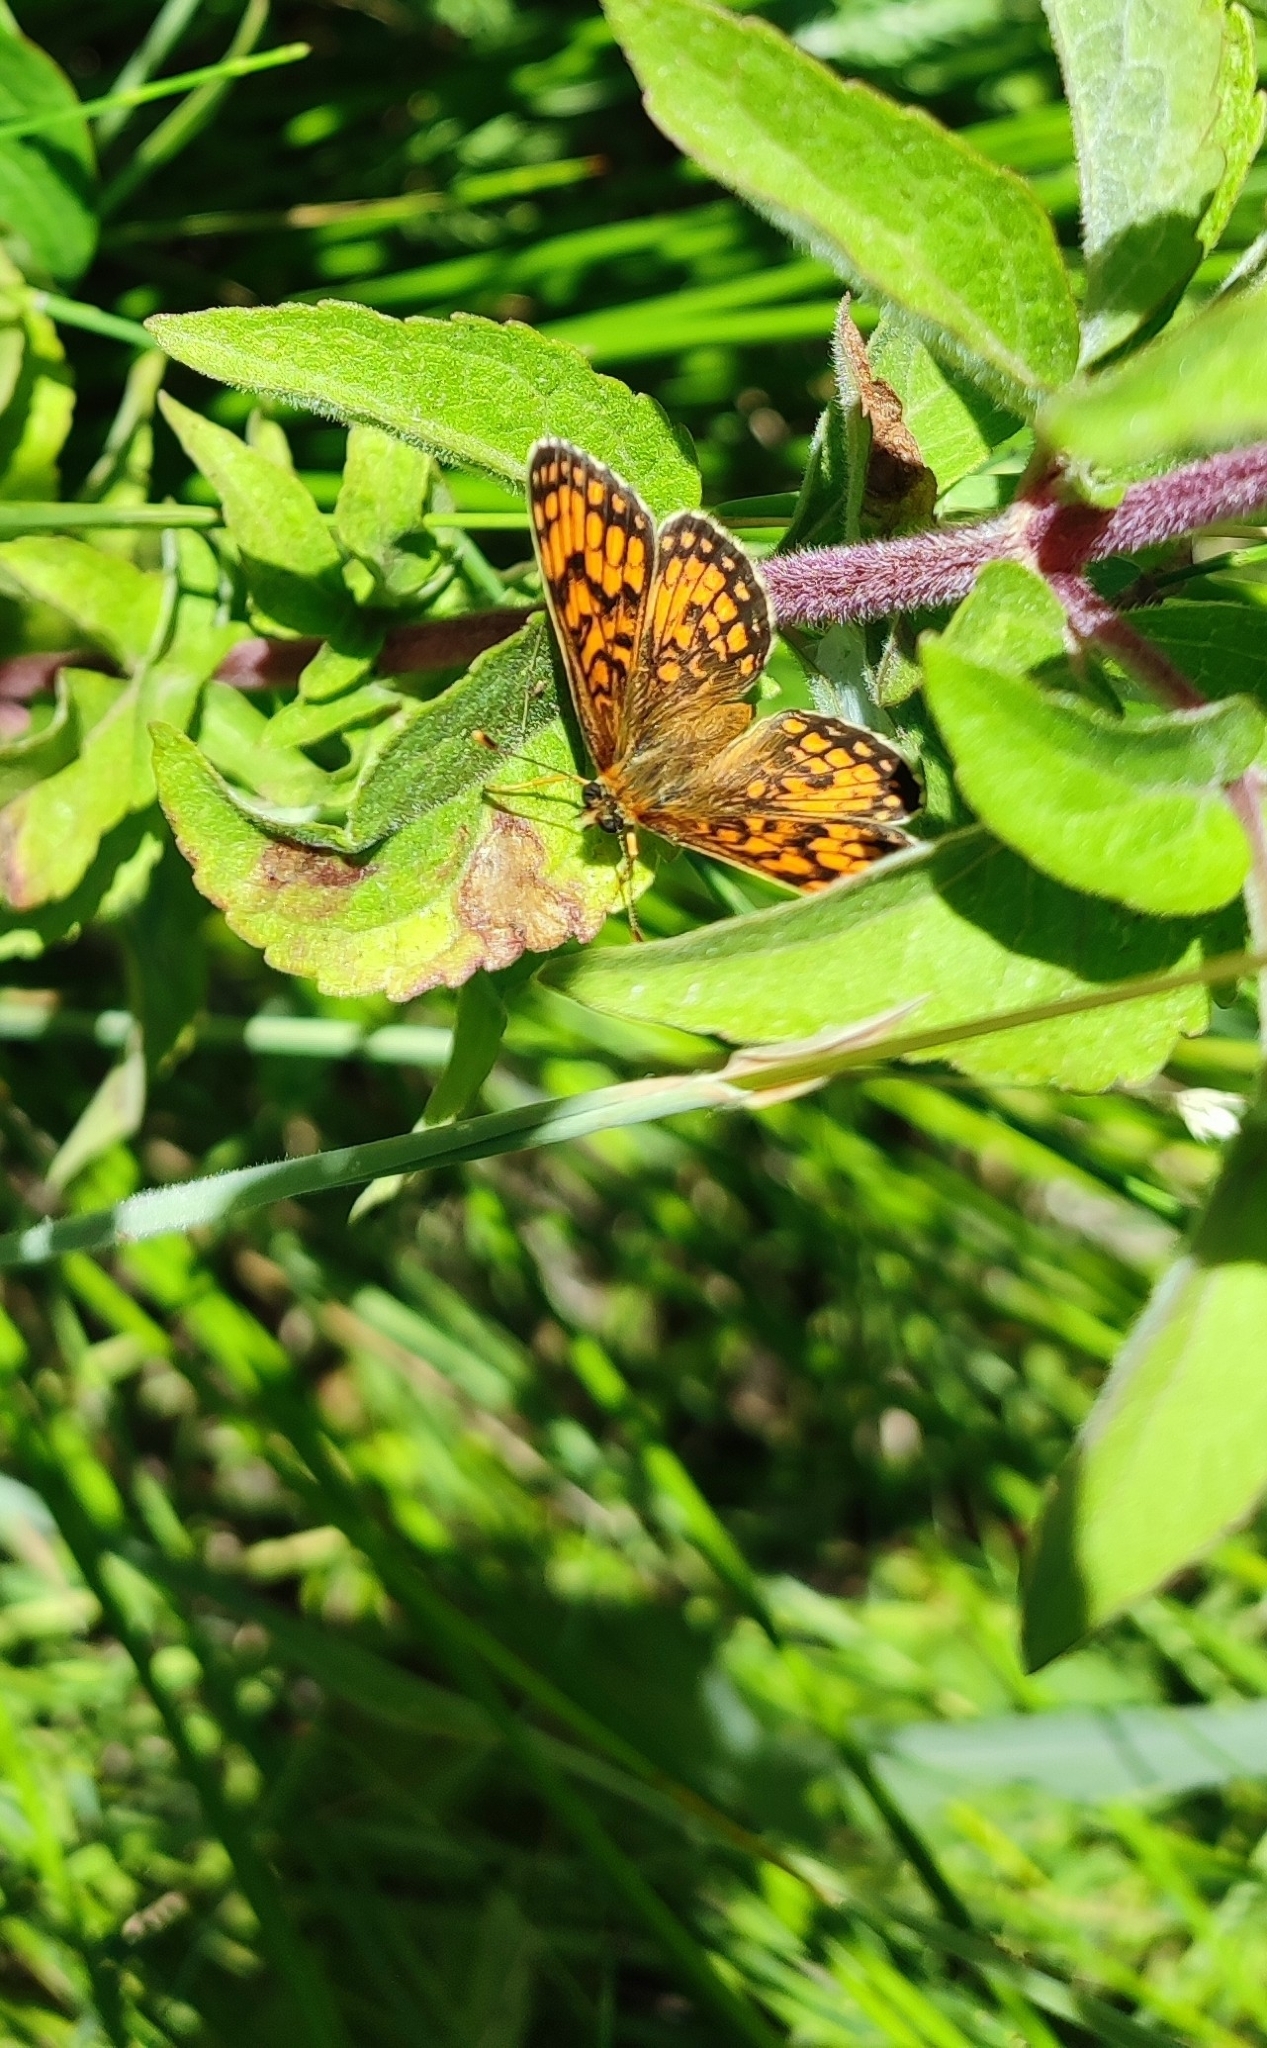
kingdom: Animalia
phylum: Arthropoda
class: Insecta
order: Lepidoptera
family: Nymphalidae
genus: Mellicta
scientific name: Mellicta athalia
